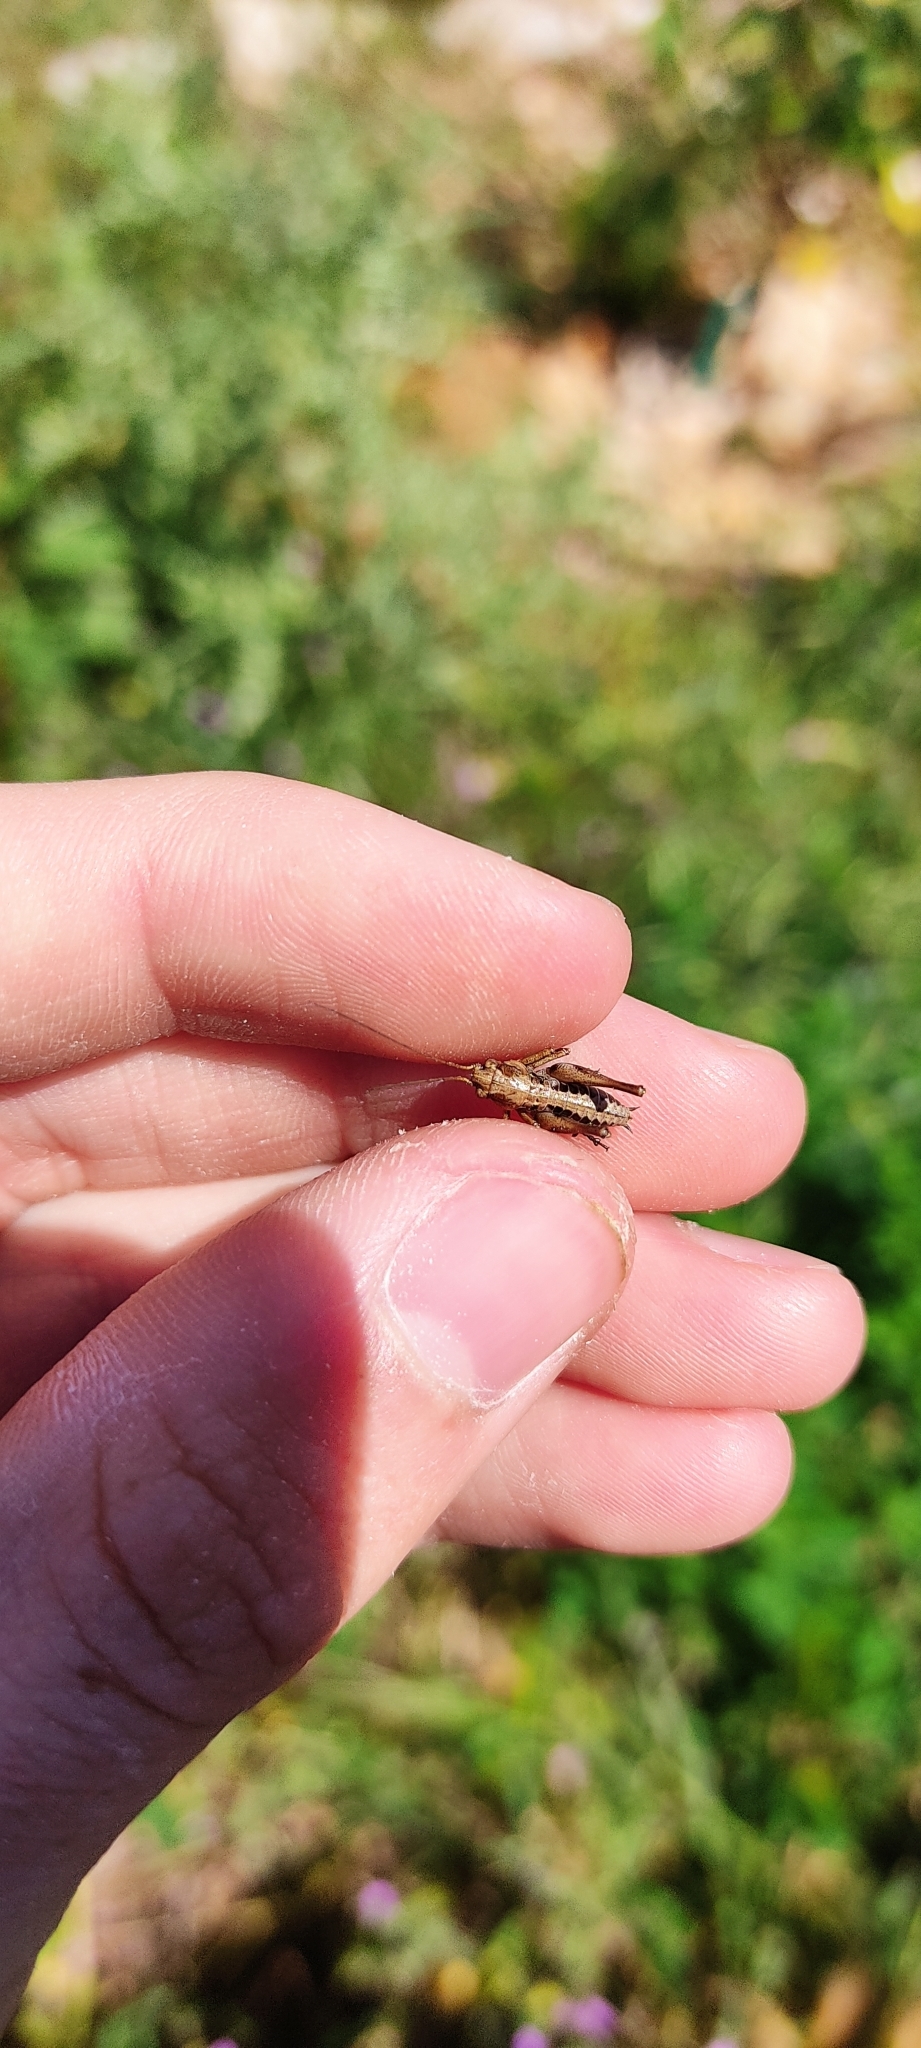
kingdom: Animalia
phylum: Arthropoda
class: Insecta
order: Orthoptera
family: Tettigoniidae
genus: Decticus
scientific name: Decticus albifrons
